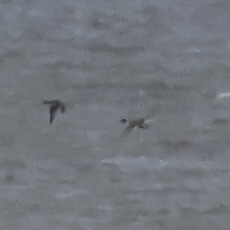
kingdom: Animalia
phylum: Chordata
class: Aves
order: Anseriformes
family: Anatidae
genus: Anas
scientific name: Anas acuta
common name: Northern pintail
